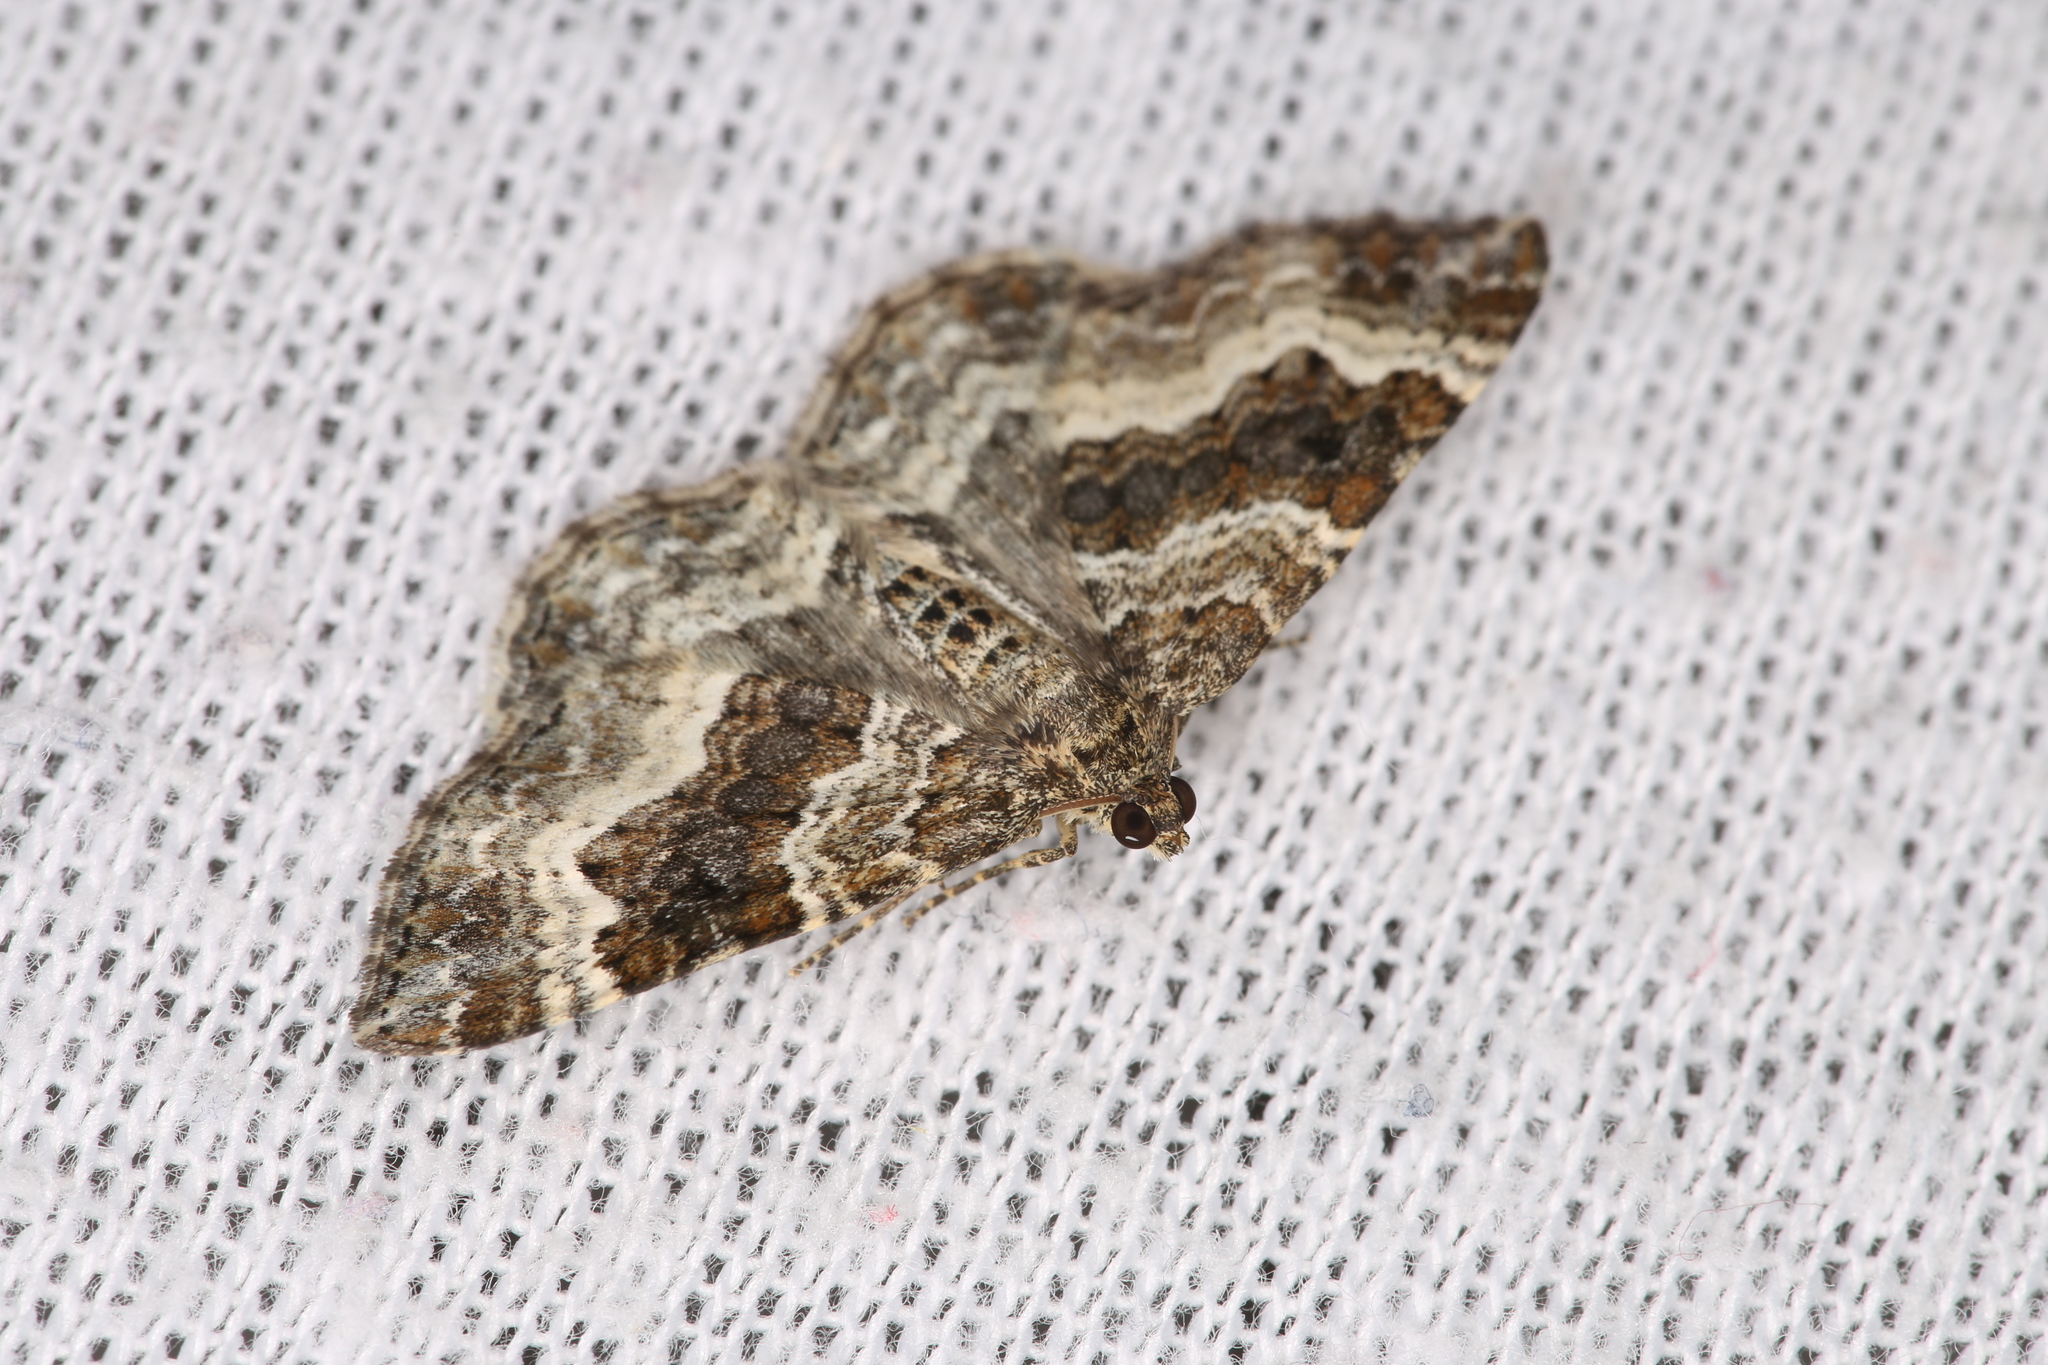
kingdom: Animalia
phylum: Arthropoda
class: Insecta
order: Lepidoptera
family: Geometridae
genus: Epirrhoe
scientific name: Epirrhoe alternata
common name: Common carpet
